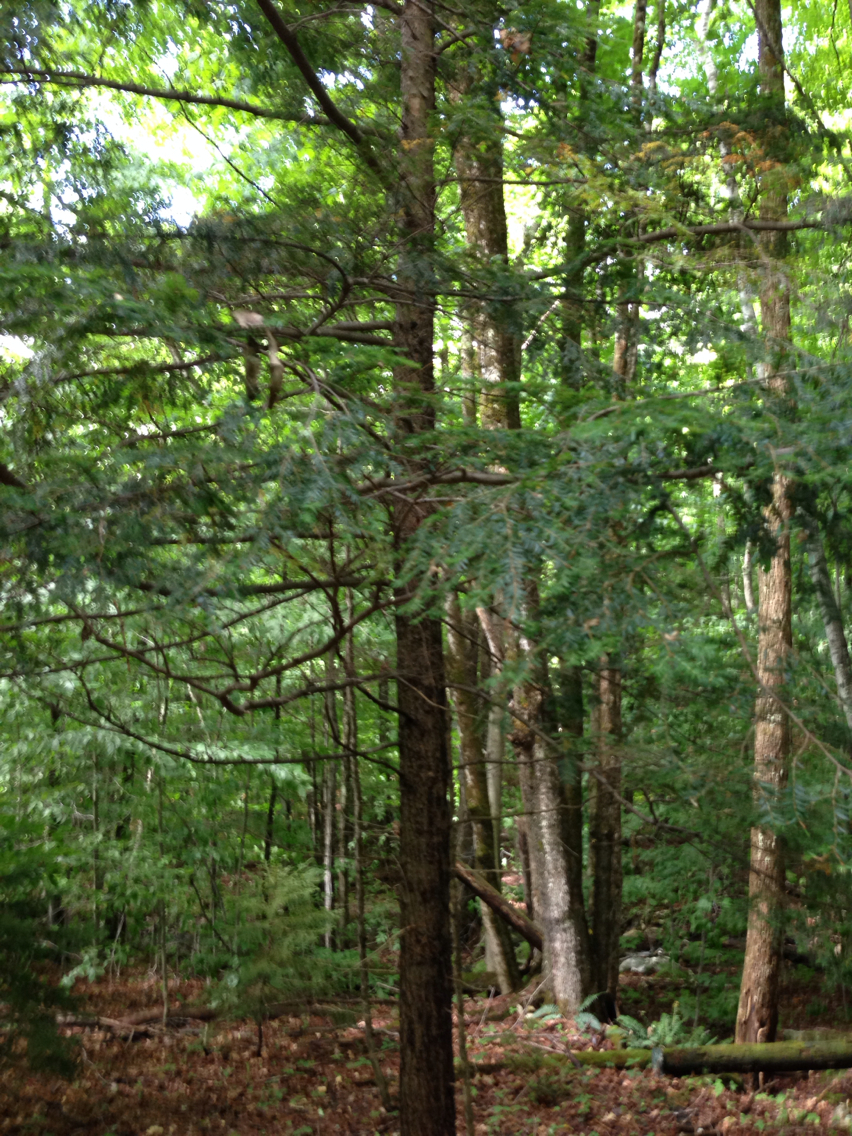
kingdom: Plantae
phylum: Tracheophyta
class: Pinopsida
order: Pinales
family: Pinaceae
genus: Tsuga
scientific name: Tsuga canadensis
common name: Eastern hemlock
